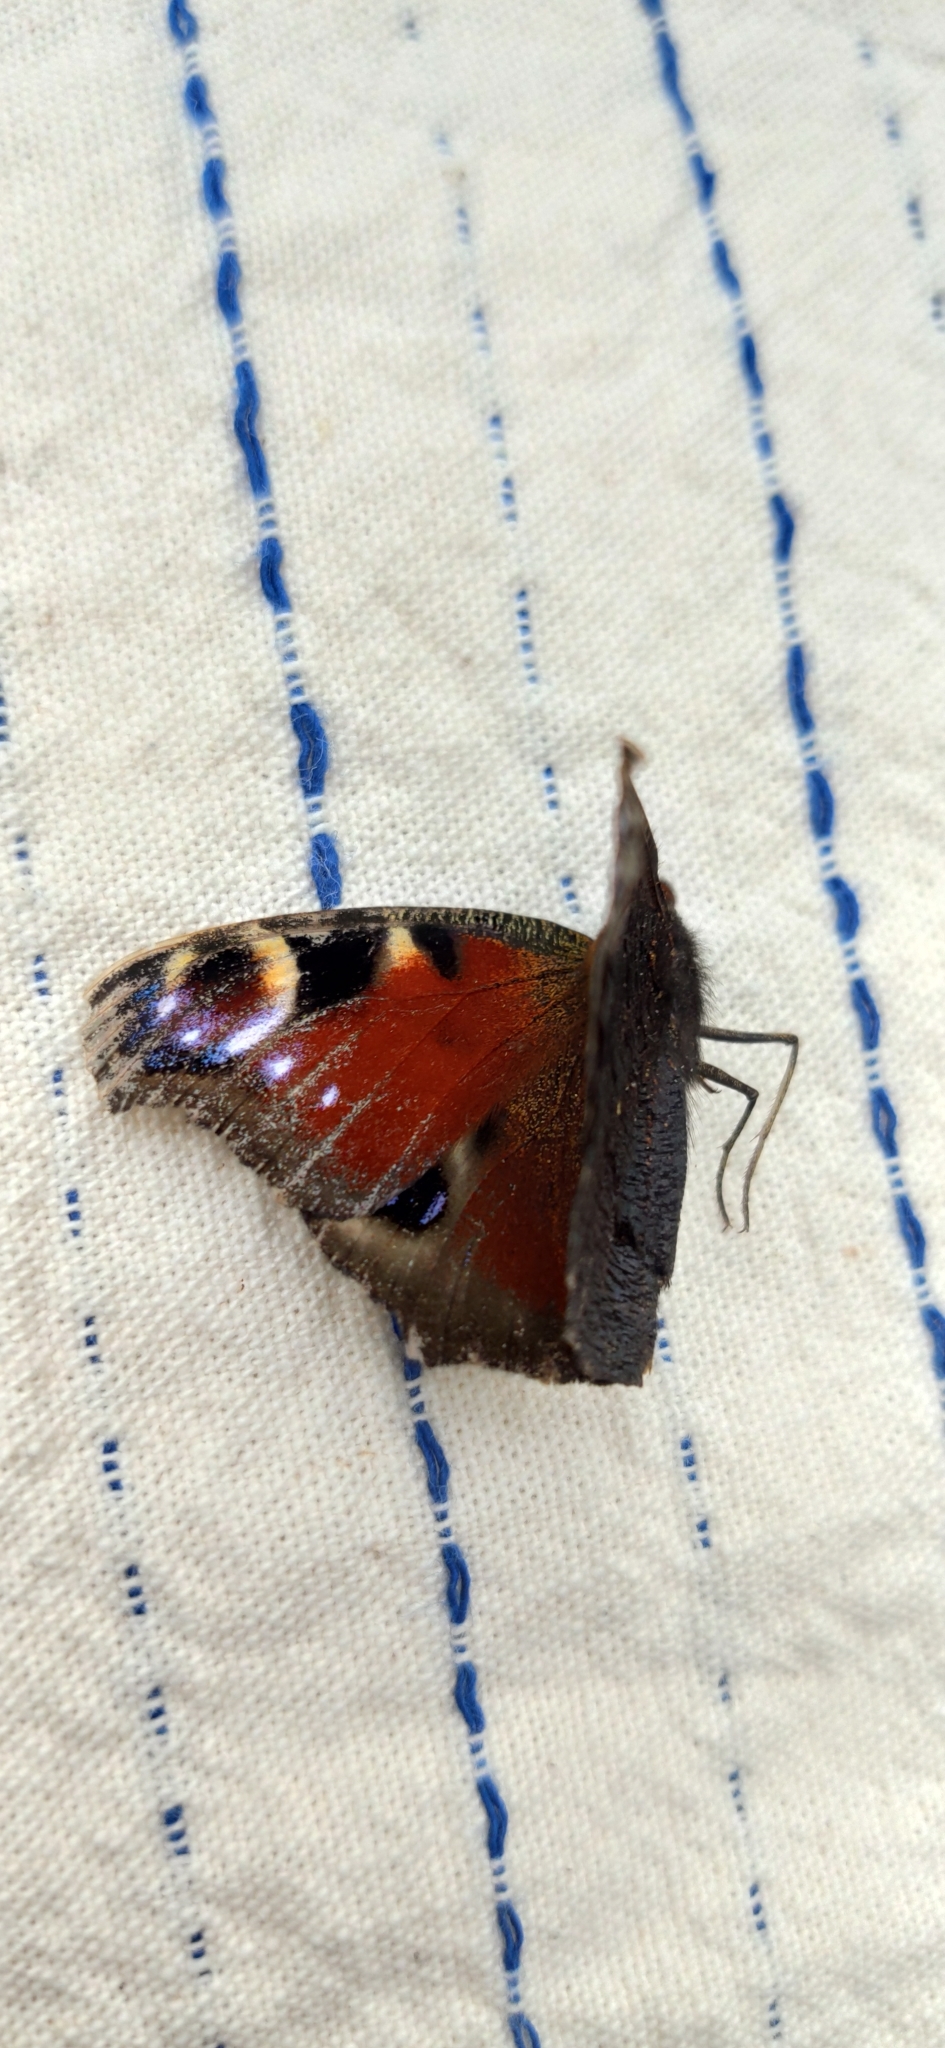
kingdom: Animalia
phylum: Arthropoda
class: Insecta
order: Lepidoptera
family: Nymphalidae
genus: Aglais
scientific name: Aglais io
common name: Peacock
